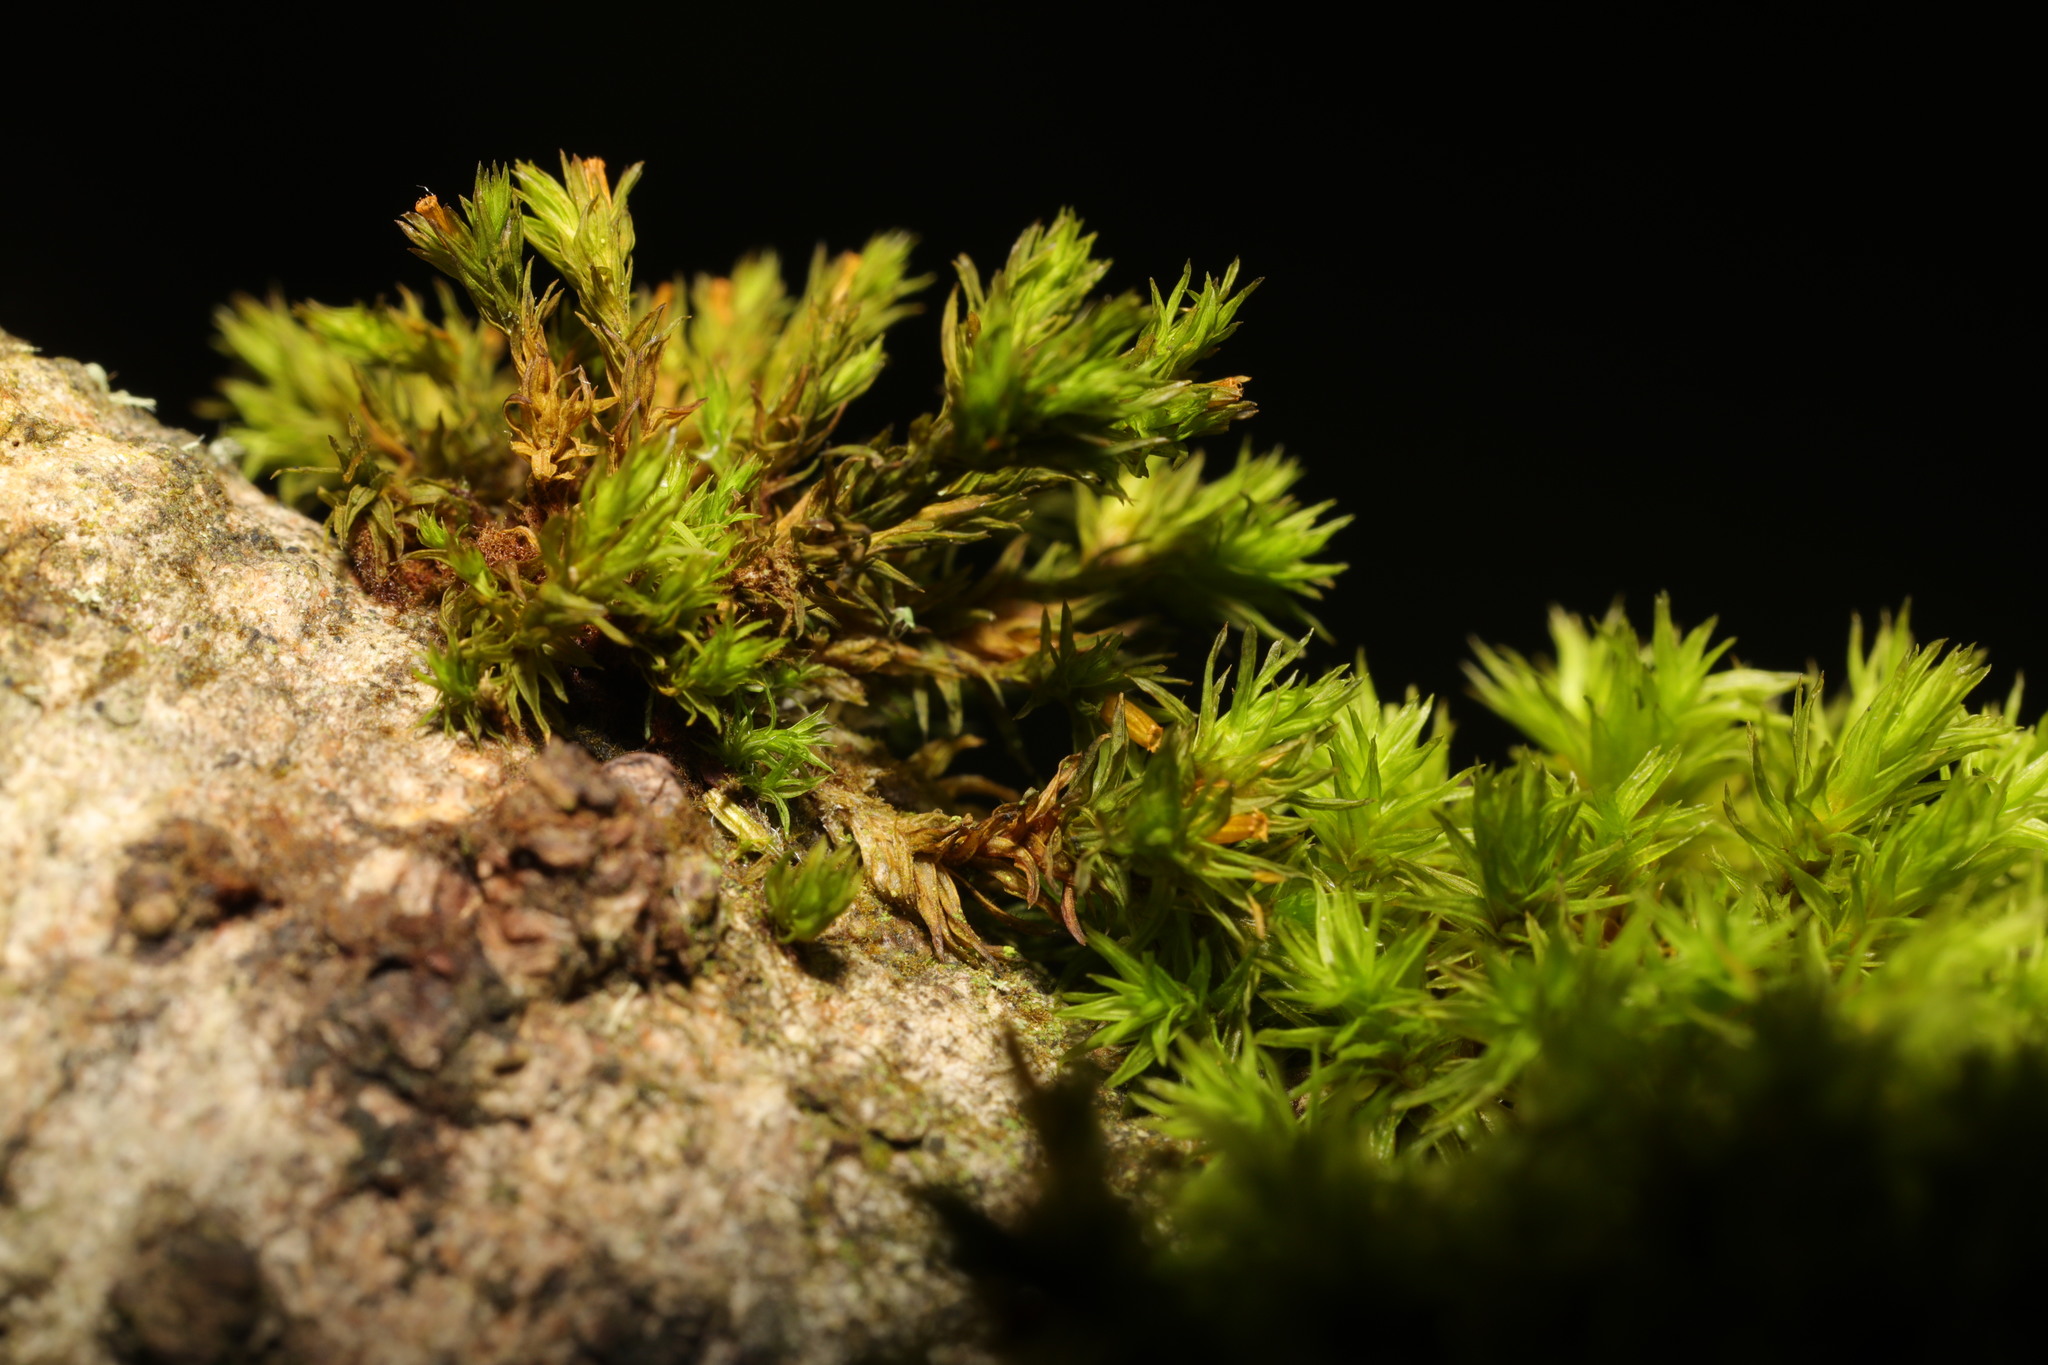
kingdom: Plantae
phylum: Bryophyta
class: Bryopsida
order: Orthotrichales
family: Orthotrichaceae
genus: Lewinskya
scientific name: Lewinskya affinis
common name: Wood bristle-moss
